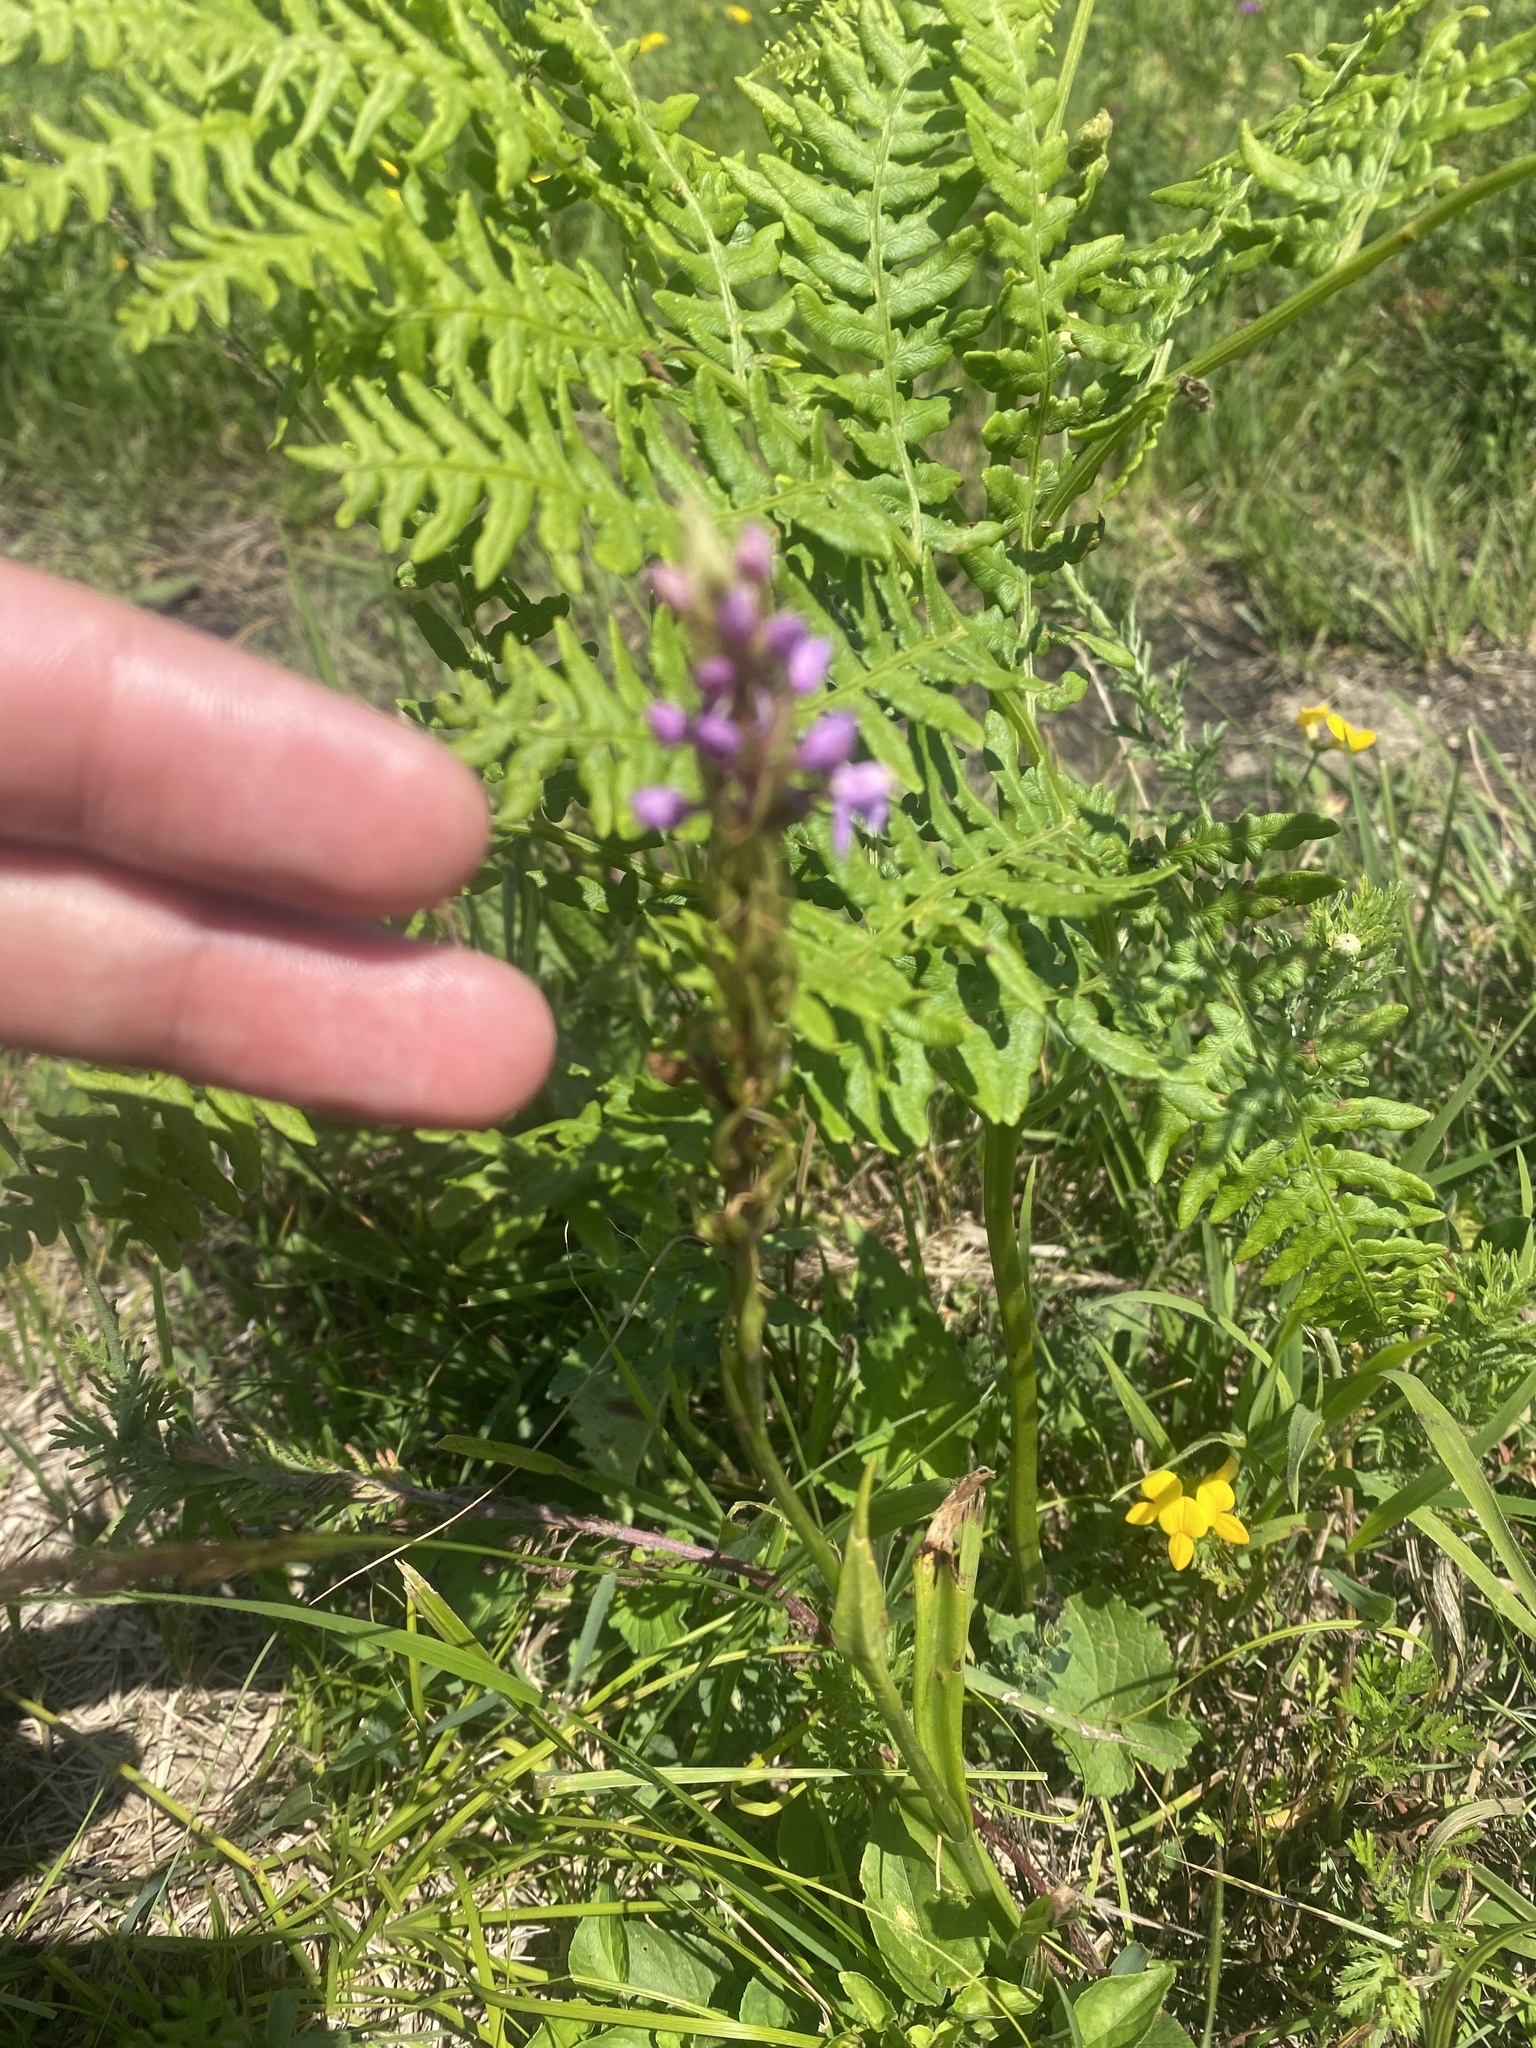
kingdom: Plantae
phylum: Tracheophyta
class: Liliopsida
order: Asparagales
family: Orchidaceae
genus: Gymnadenia
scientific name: Gymnadenia conopsea
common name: Fragrant orchid
